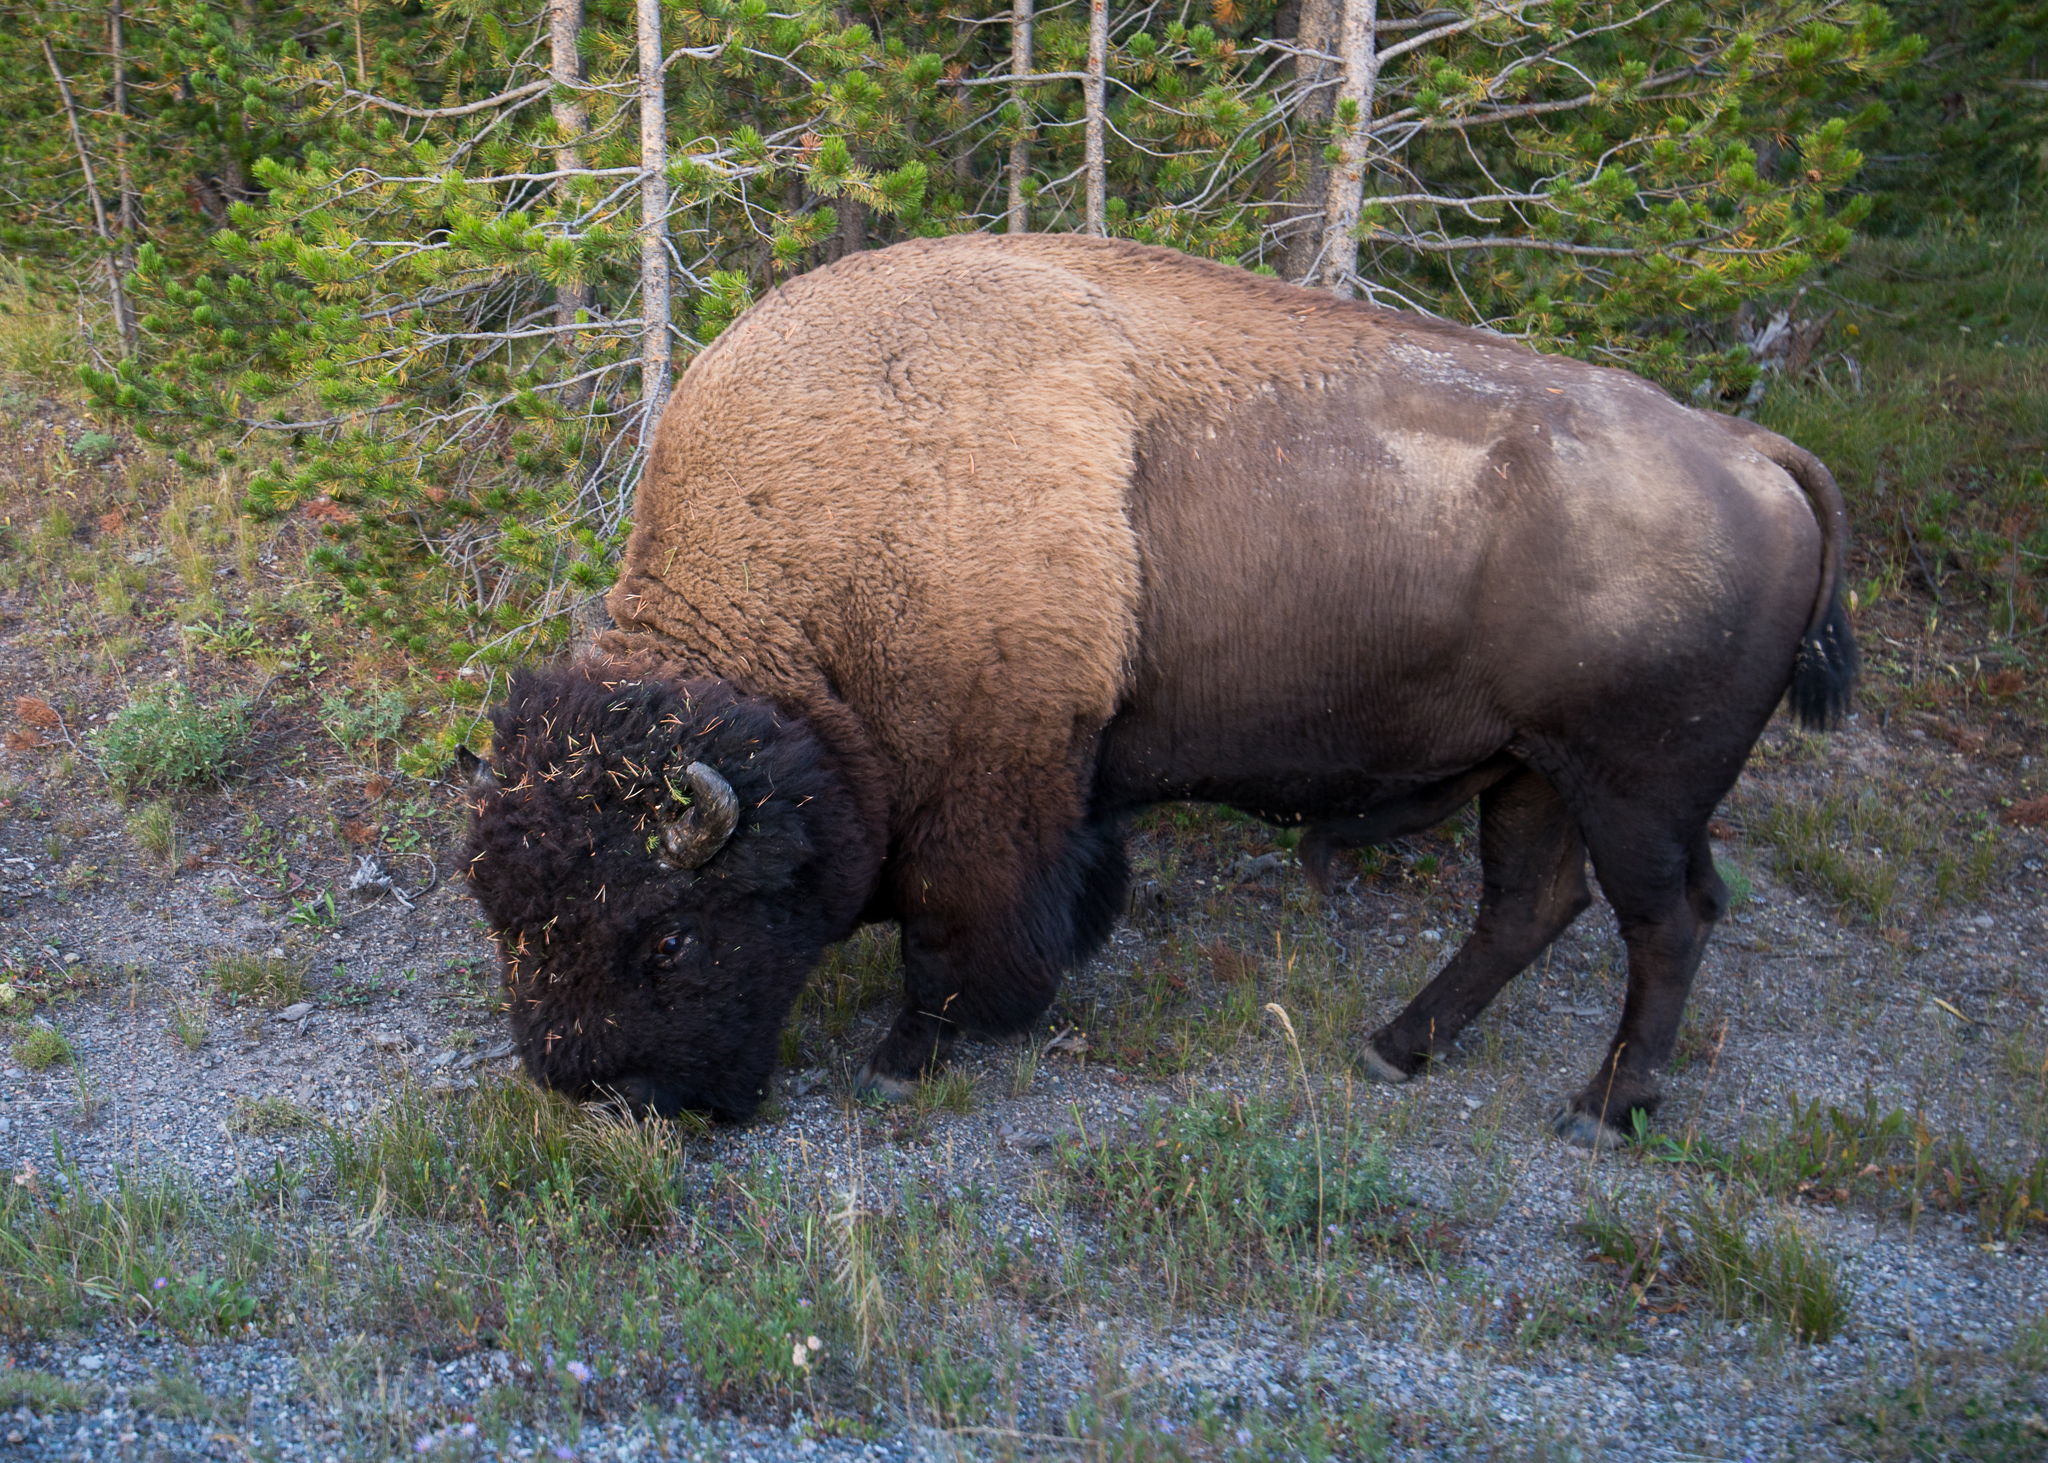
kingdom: Animalia
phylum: Chordata
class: Mammalia
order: Artiodactyla
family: Bovidae
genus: Bison
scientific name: Bison bison
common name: American bison
